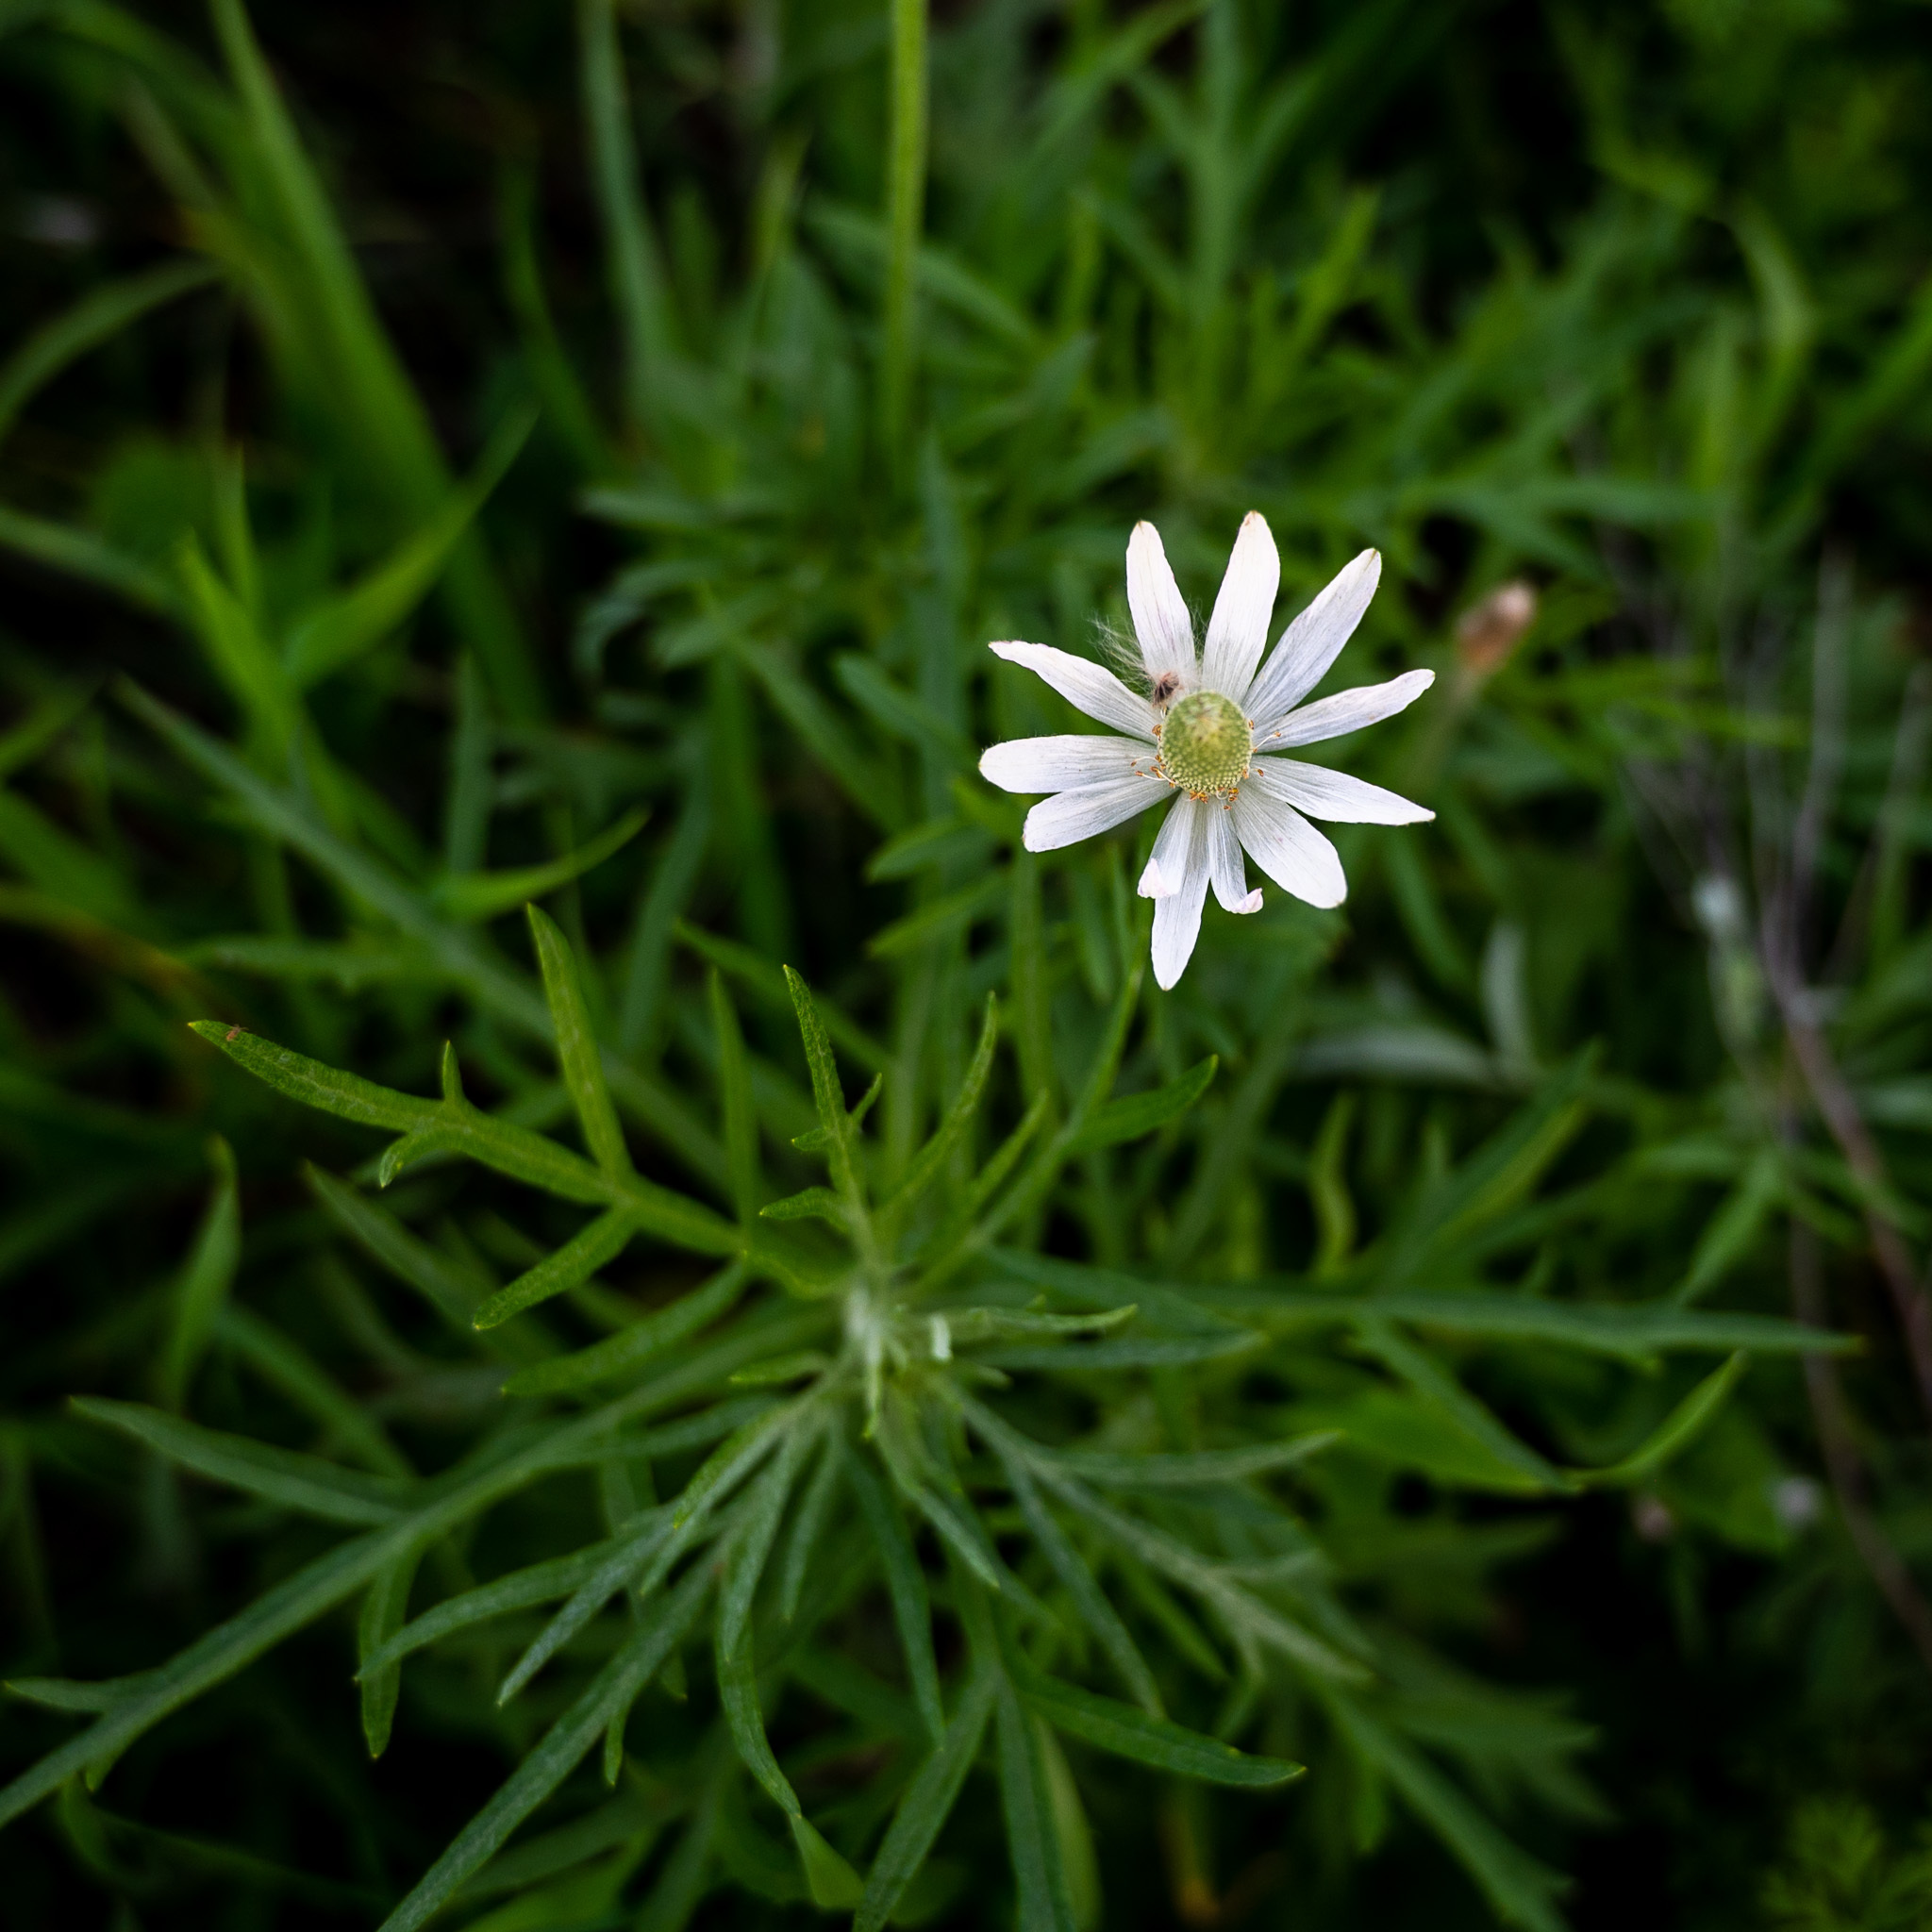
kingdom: Plantae
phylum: Tracheophyta
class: Magnoliopsida
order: Ranunculales
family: Ranunculaceae
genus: Anemone
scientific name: Anemone berlandieri
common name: Ten-petal anemone
